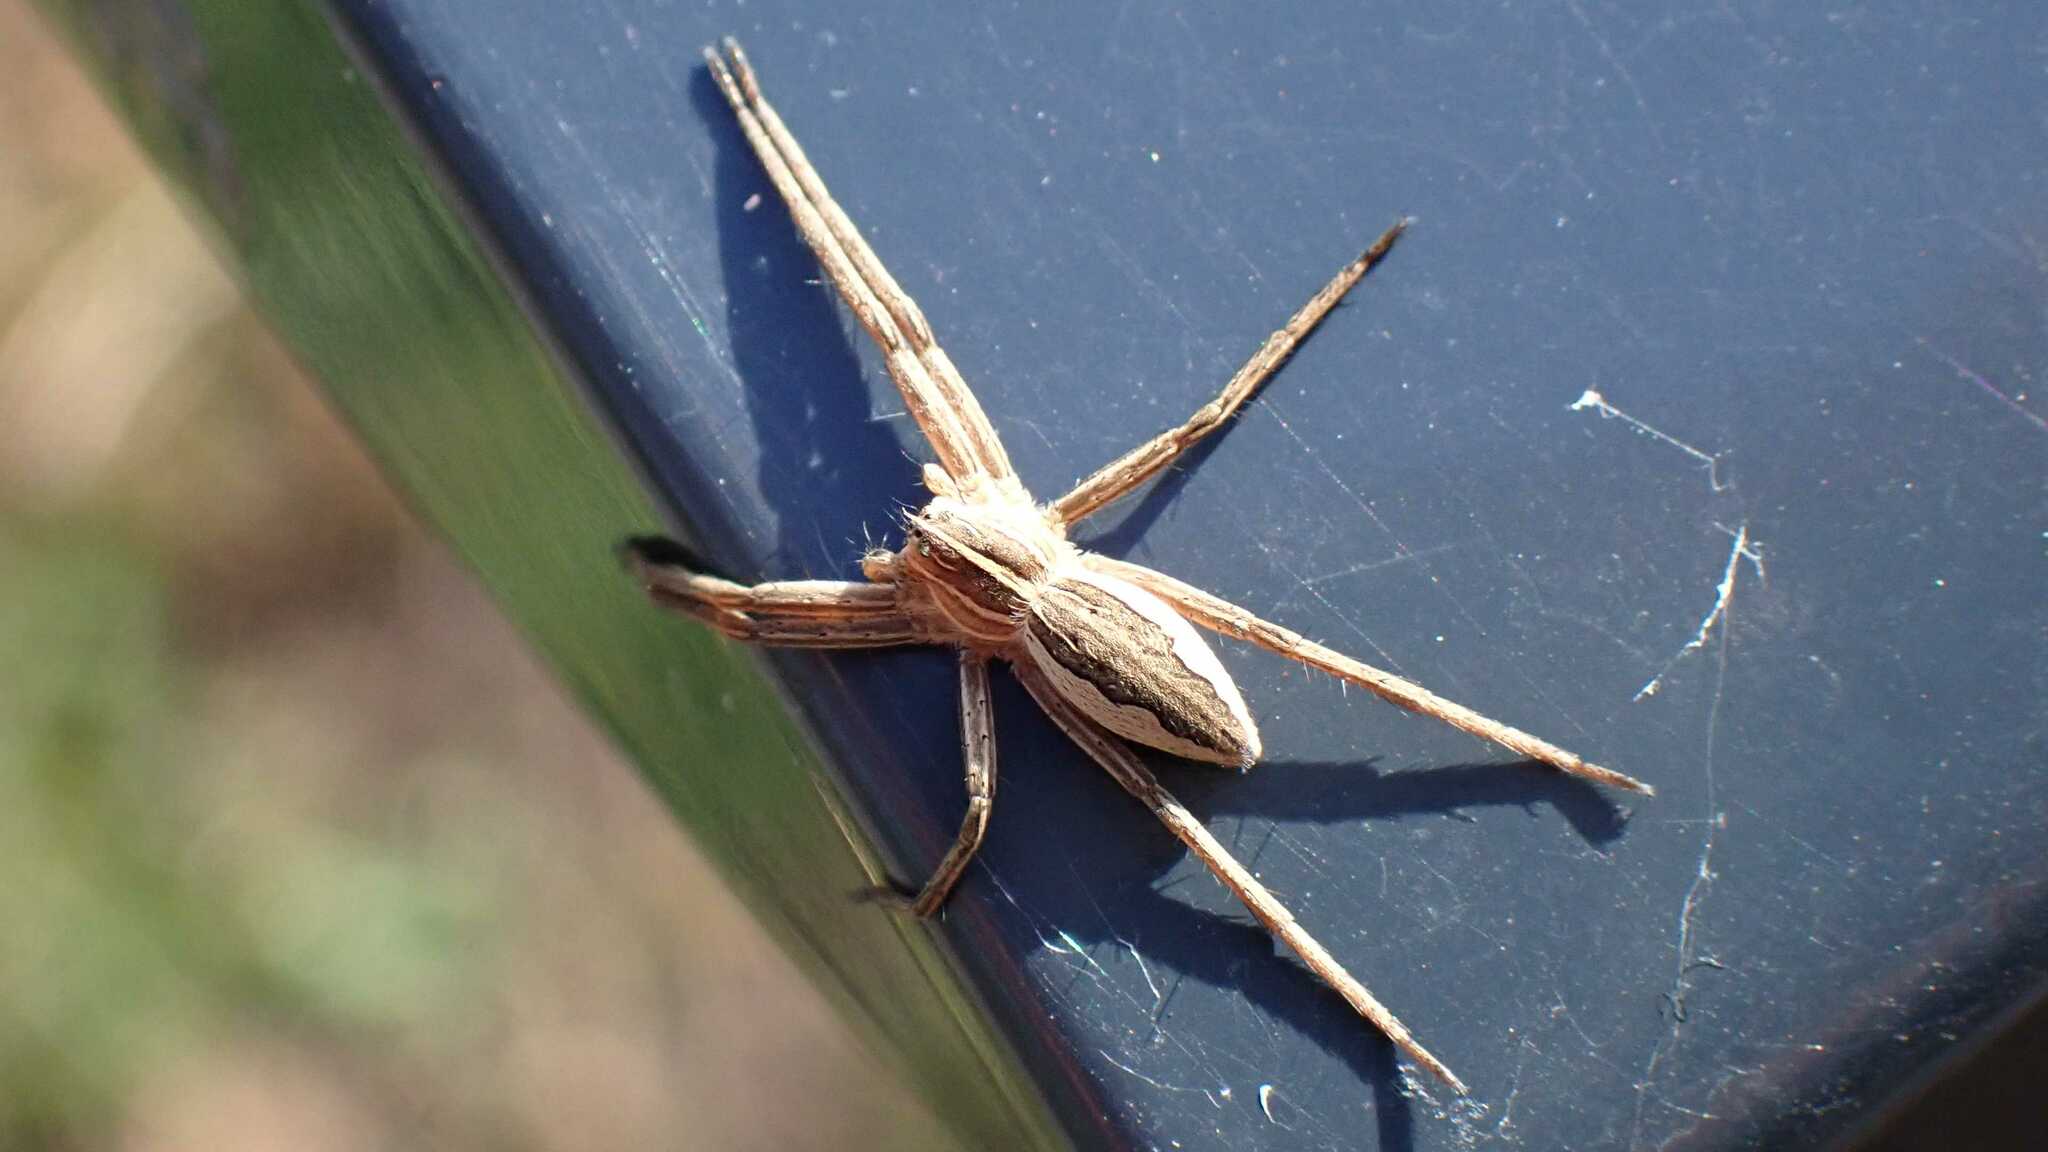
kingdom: Animalia
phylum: Arthropoda
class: Arachnida
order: Araneae
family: Pisauridae
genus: Pisaura
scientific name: Pisaura mirabilis
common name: Tent spider
